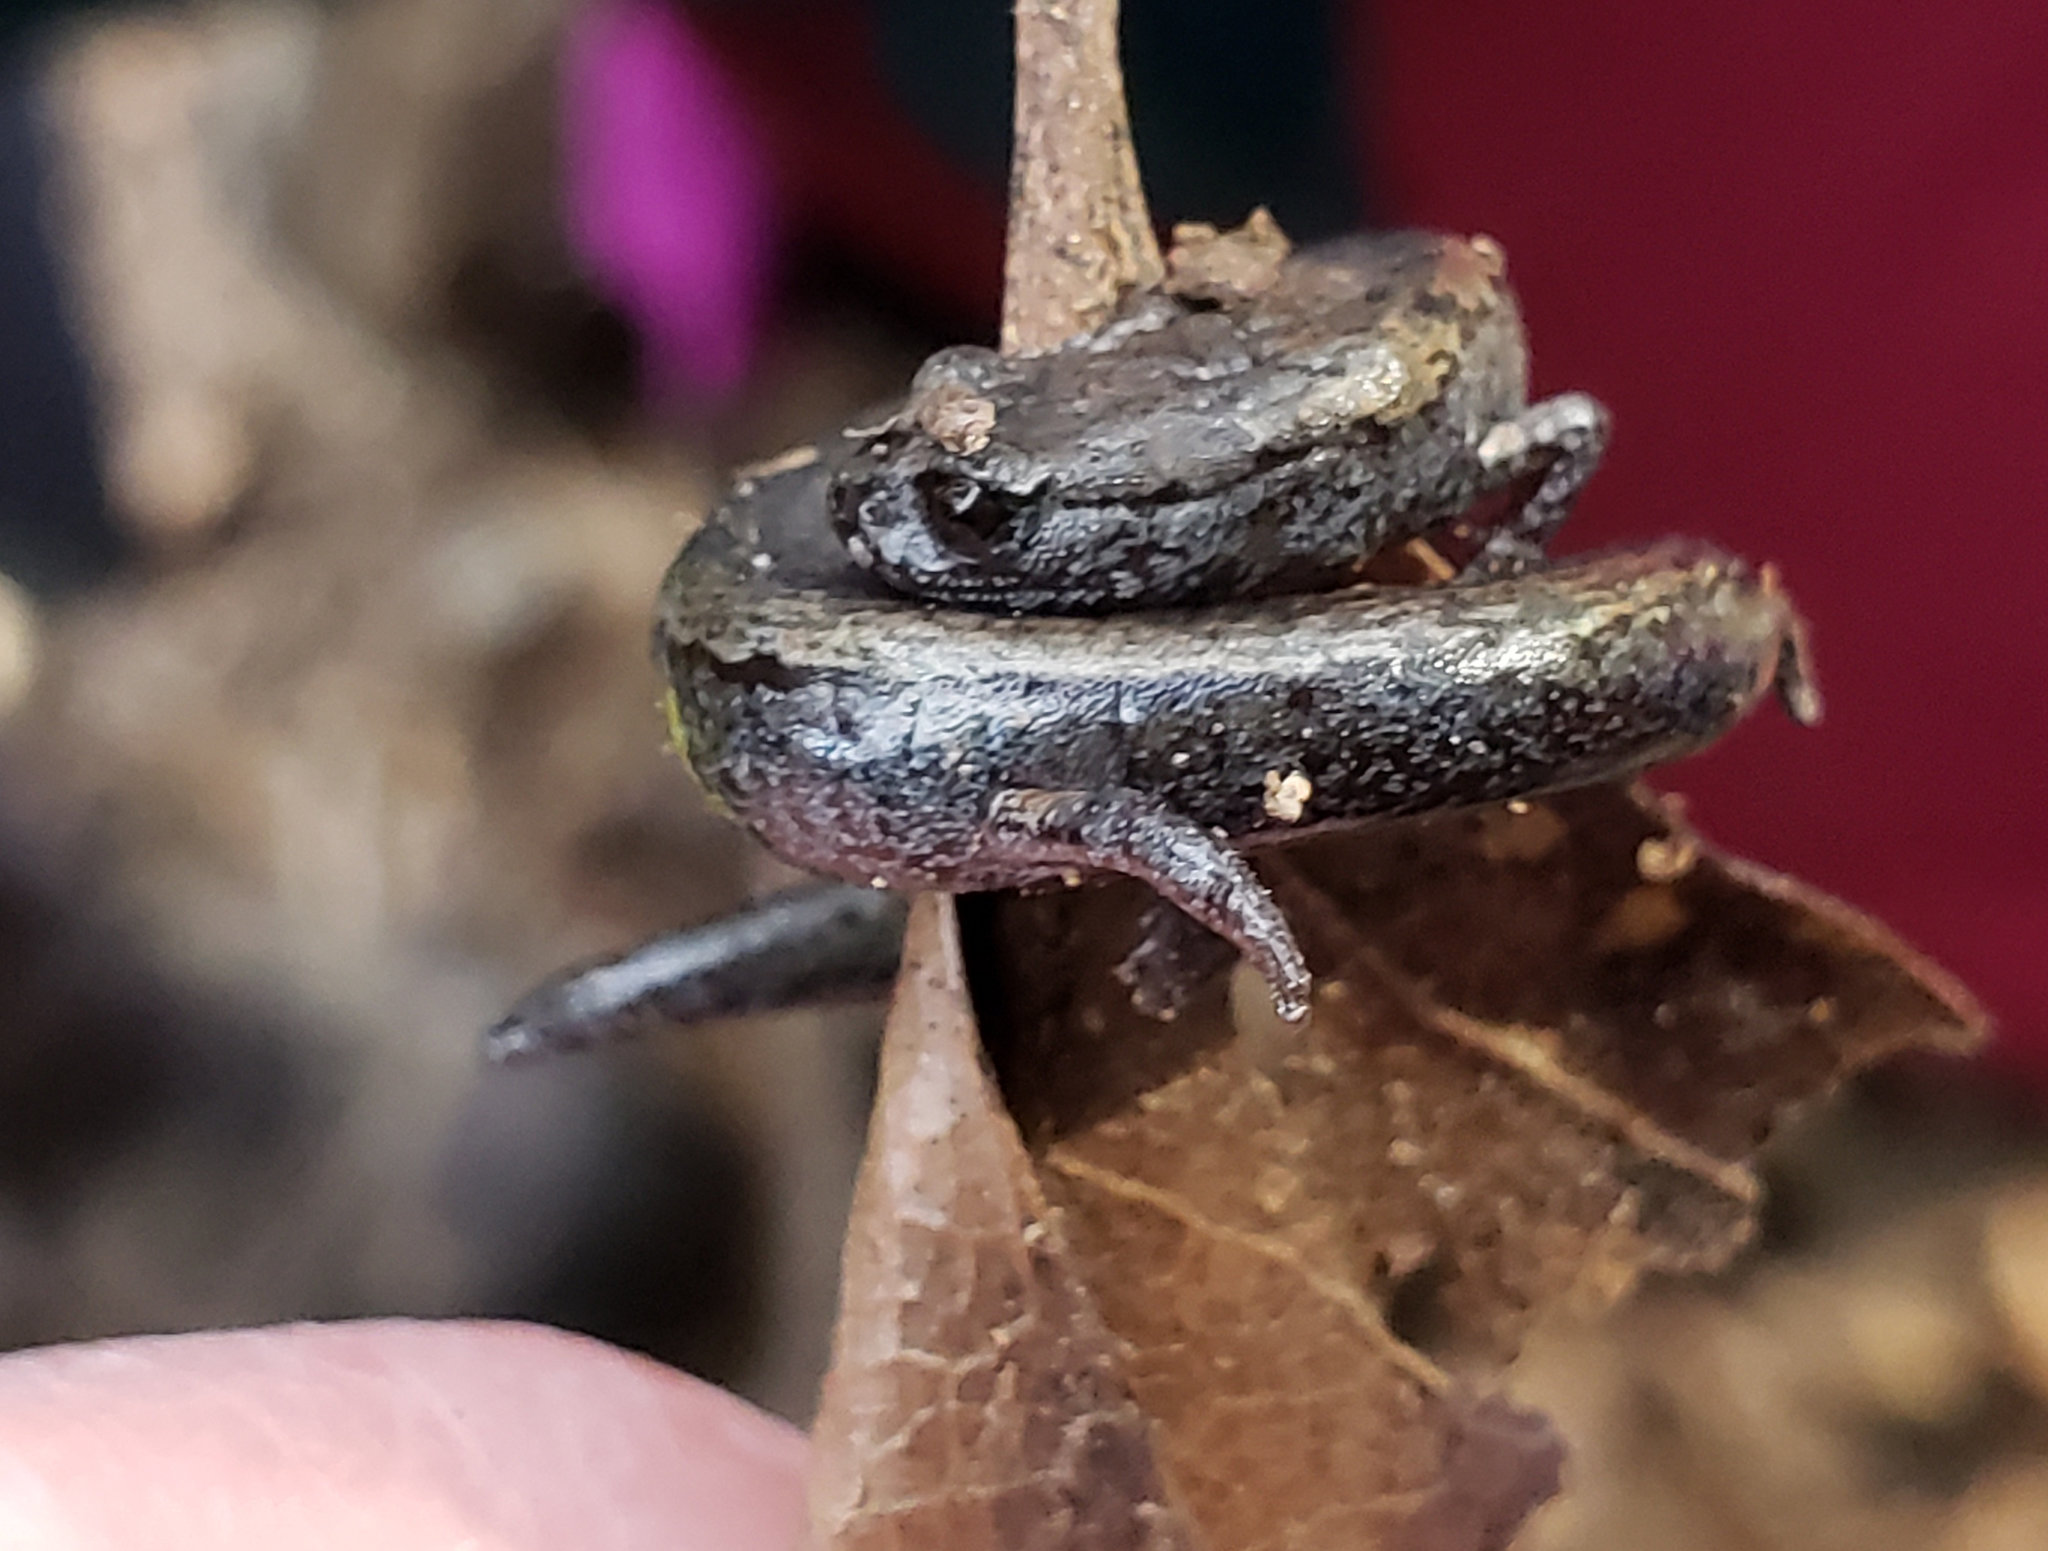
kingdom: Animalia
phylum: Chordata
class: Amphibia
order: Caudata
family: Plethodontidae
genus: Batrachoseps
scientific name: Batrachoseps attenuatus
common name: California slender salamander
